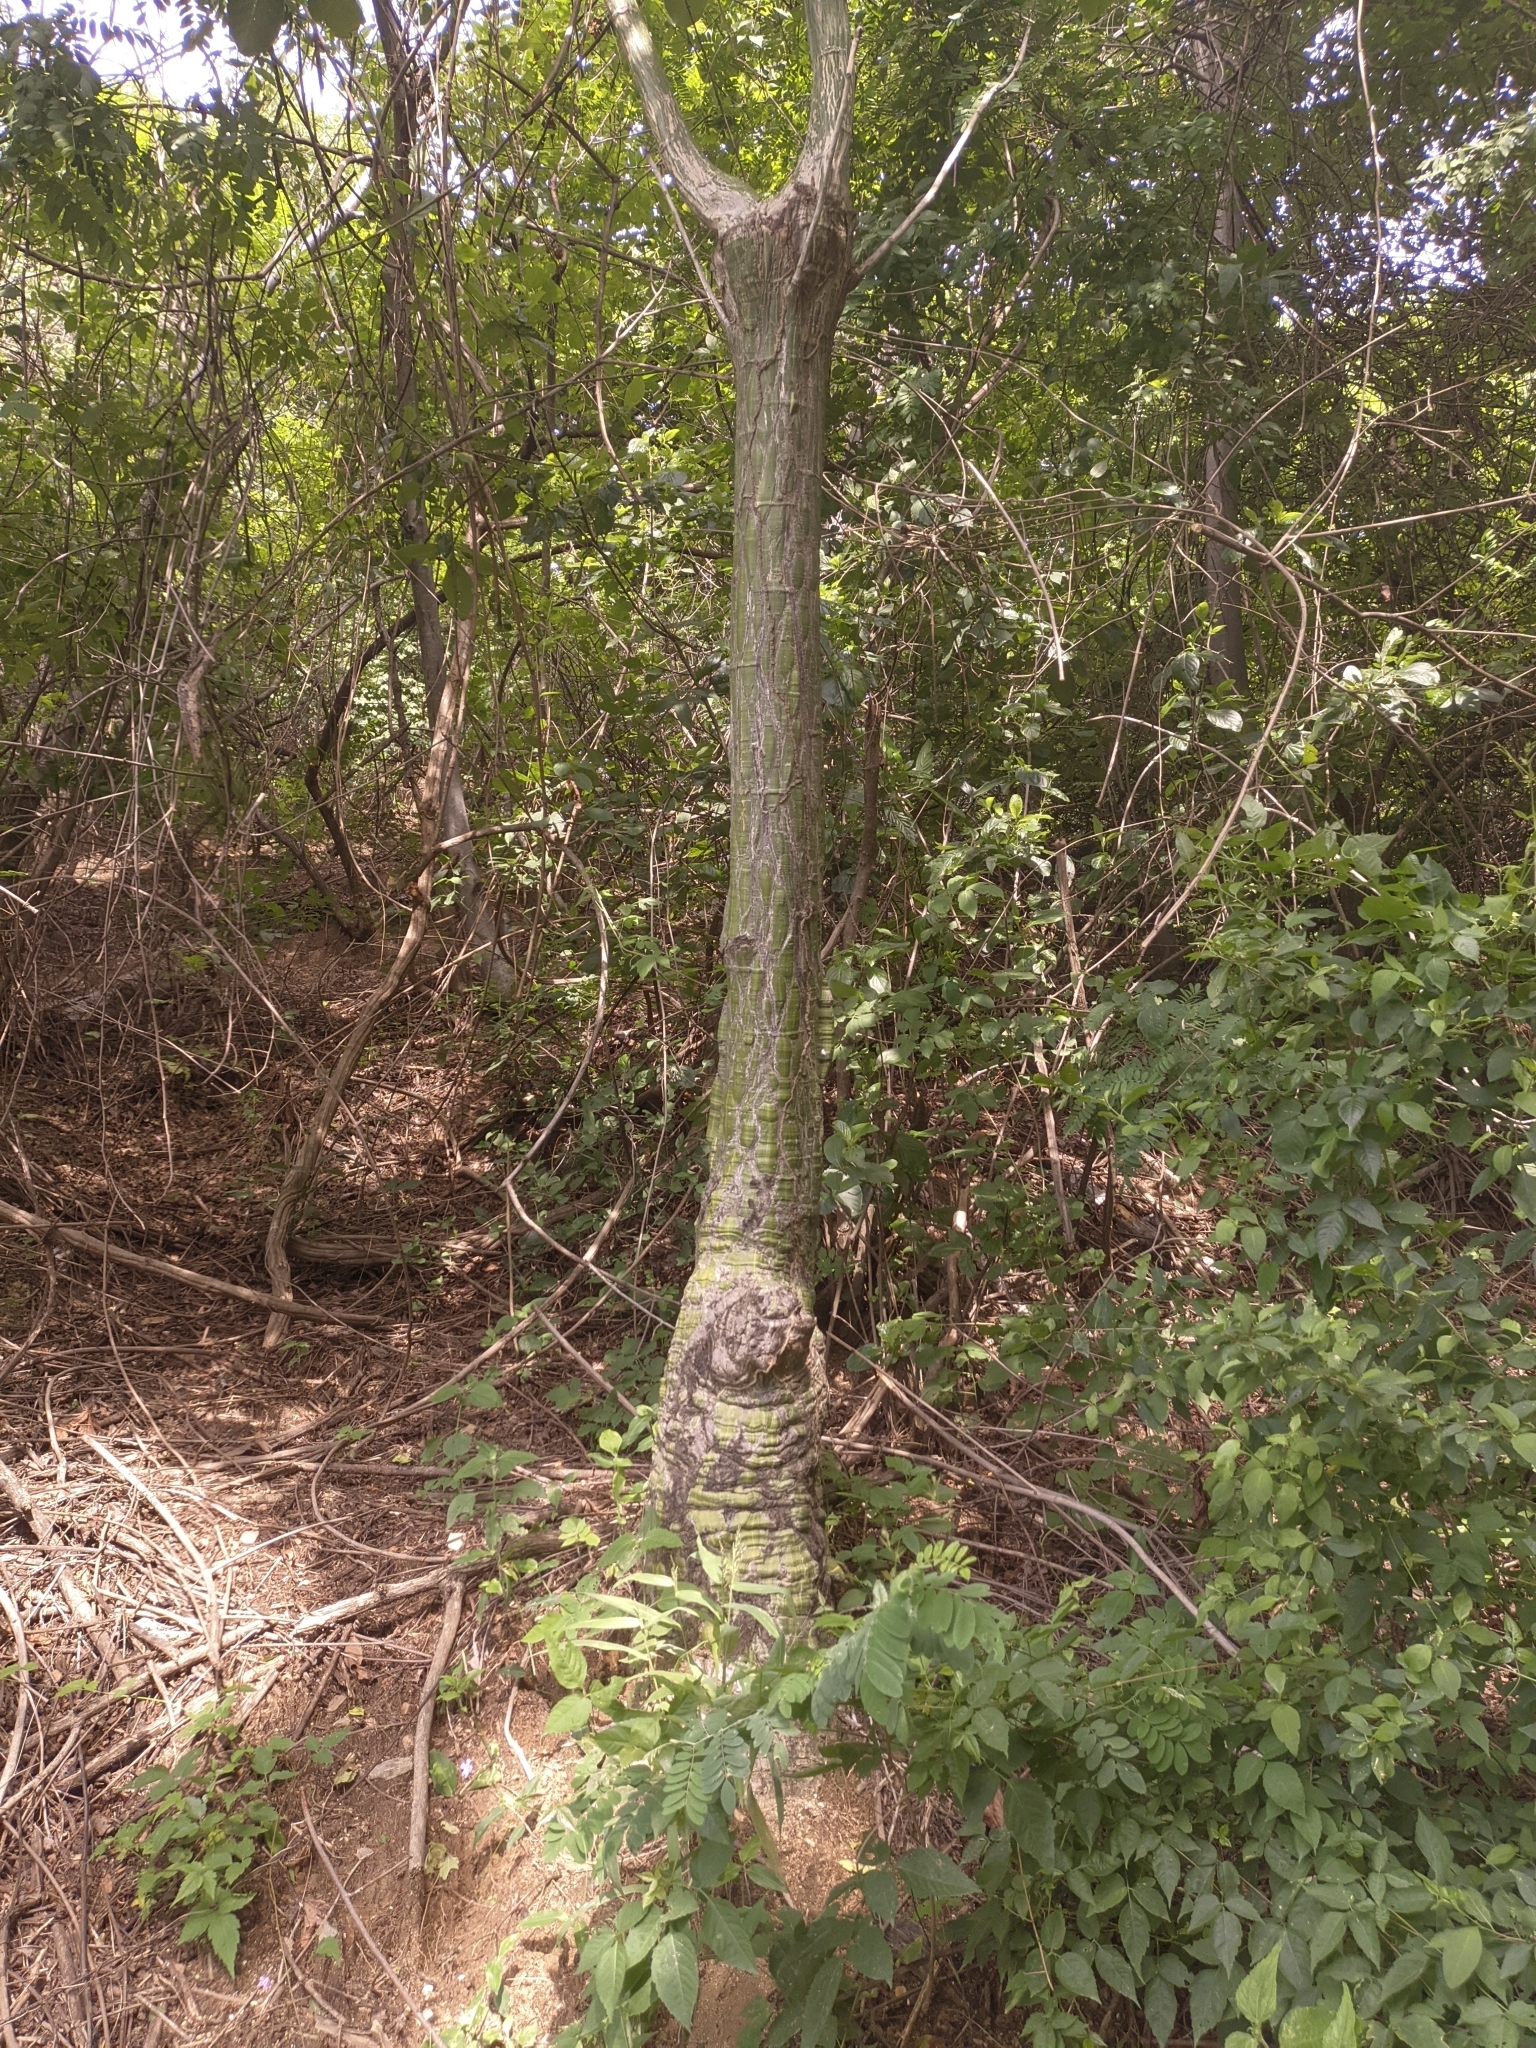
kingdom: Plantae
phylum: Tracheophyta
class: Magnoliopsida
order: Malvales
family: Malvaceae
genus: Pseudobombax
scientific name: Pseudobombax septenatum
